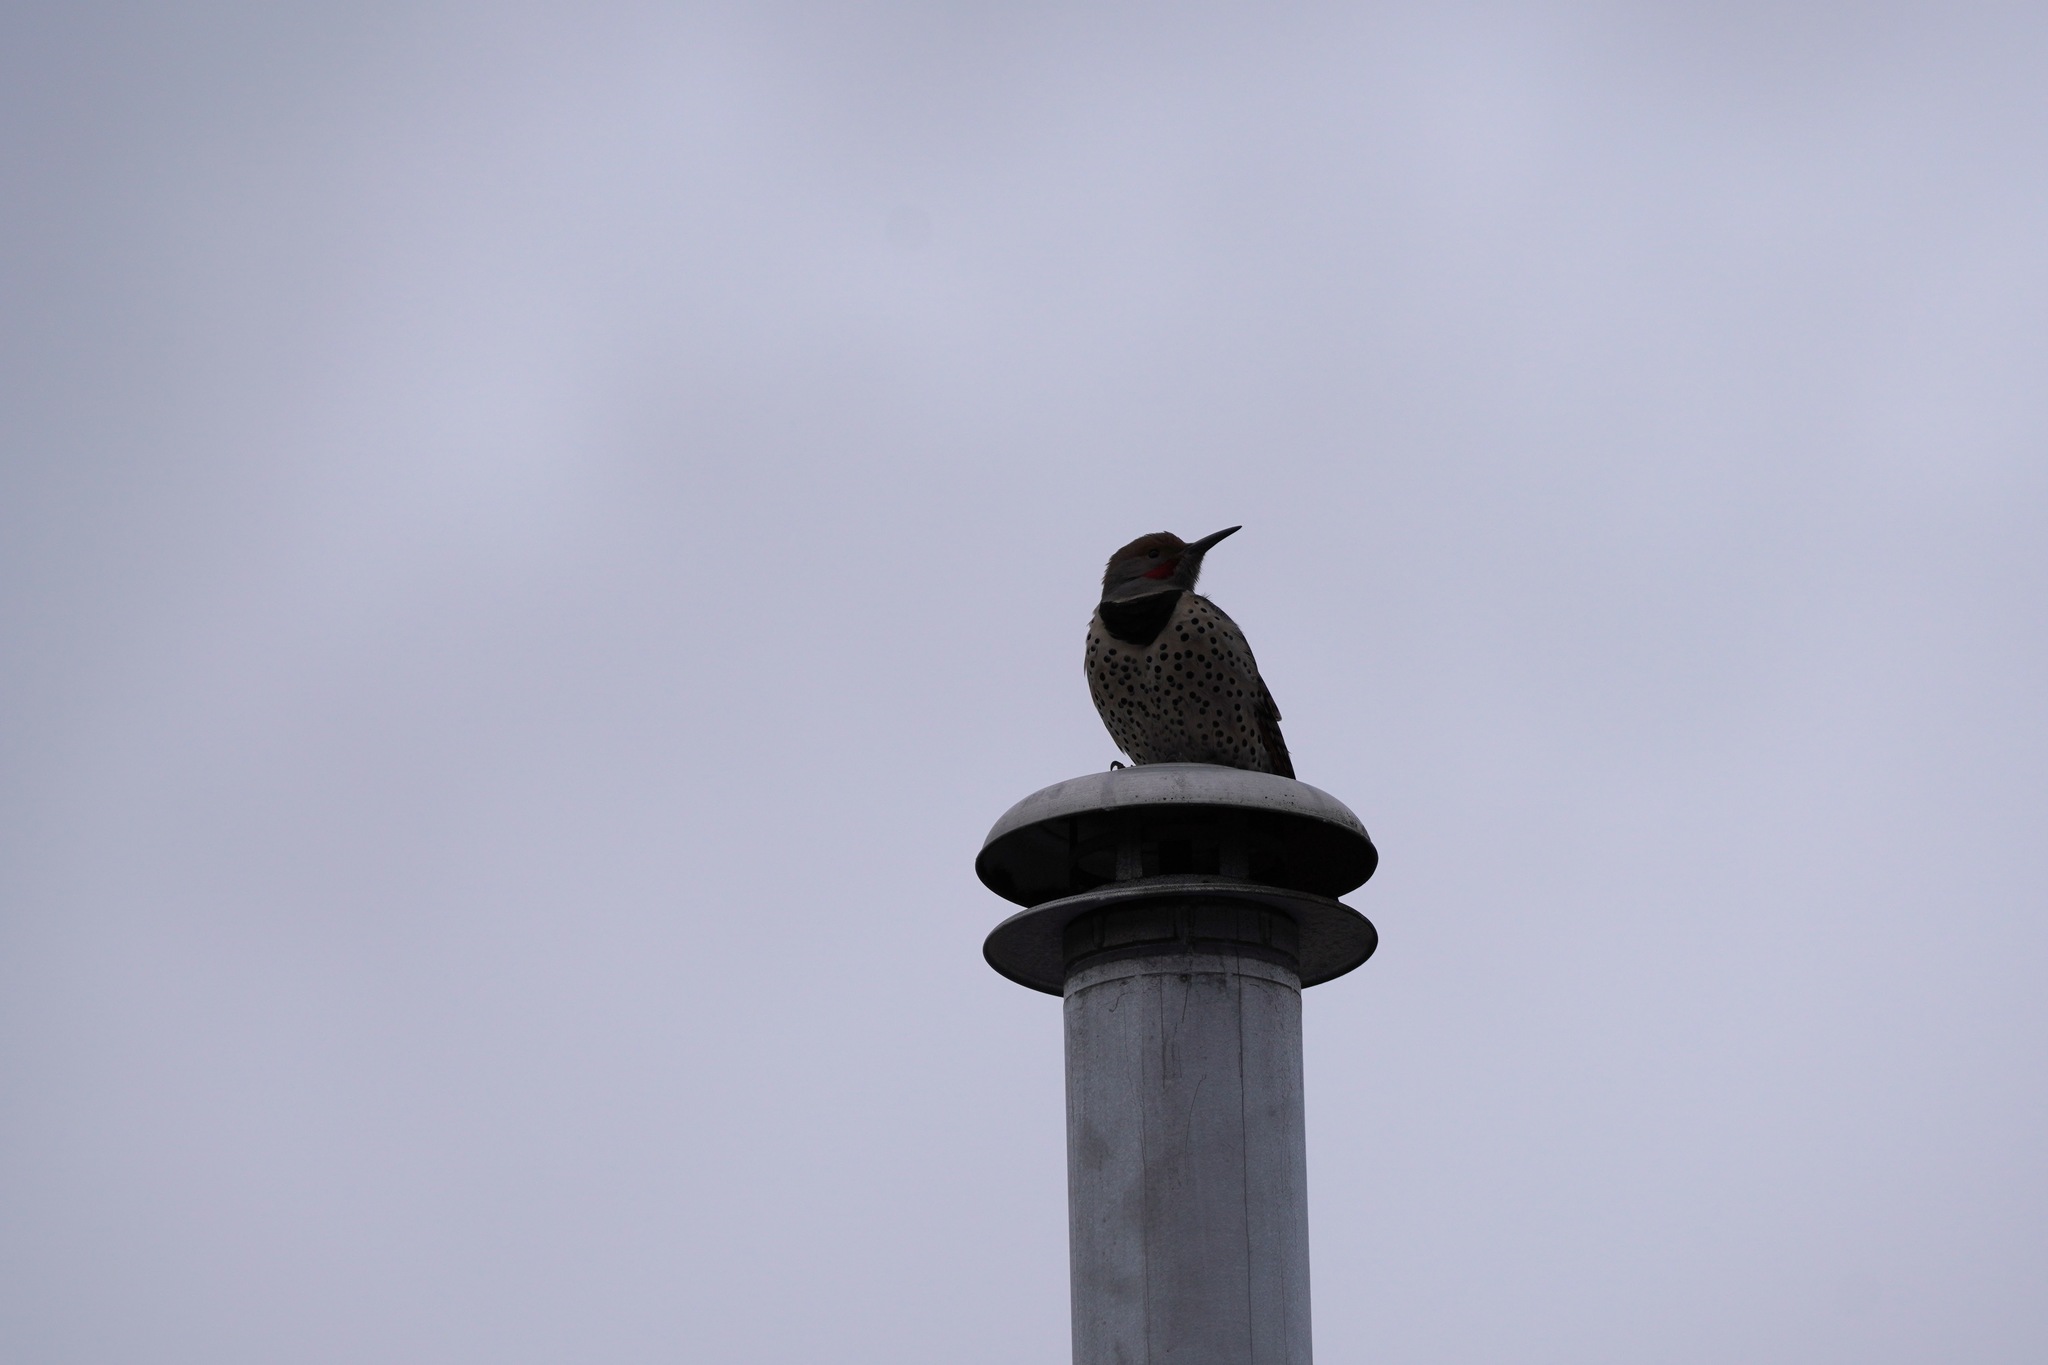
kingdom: Animalia
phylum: Chordata
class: Aves
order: Piciformes
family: Picidae
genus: Colaptes
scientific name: Colaptes auratus
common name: Northern flicker
